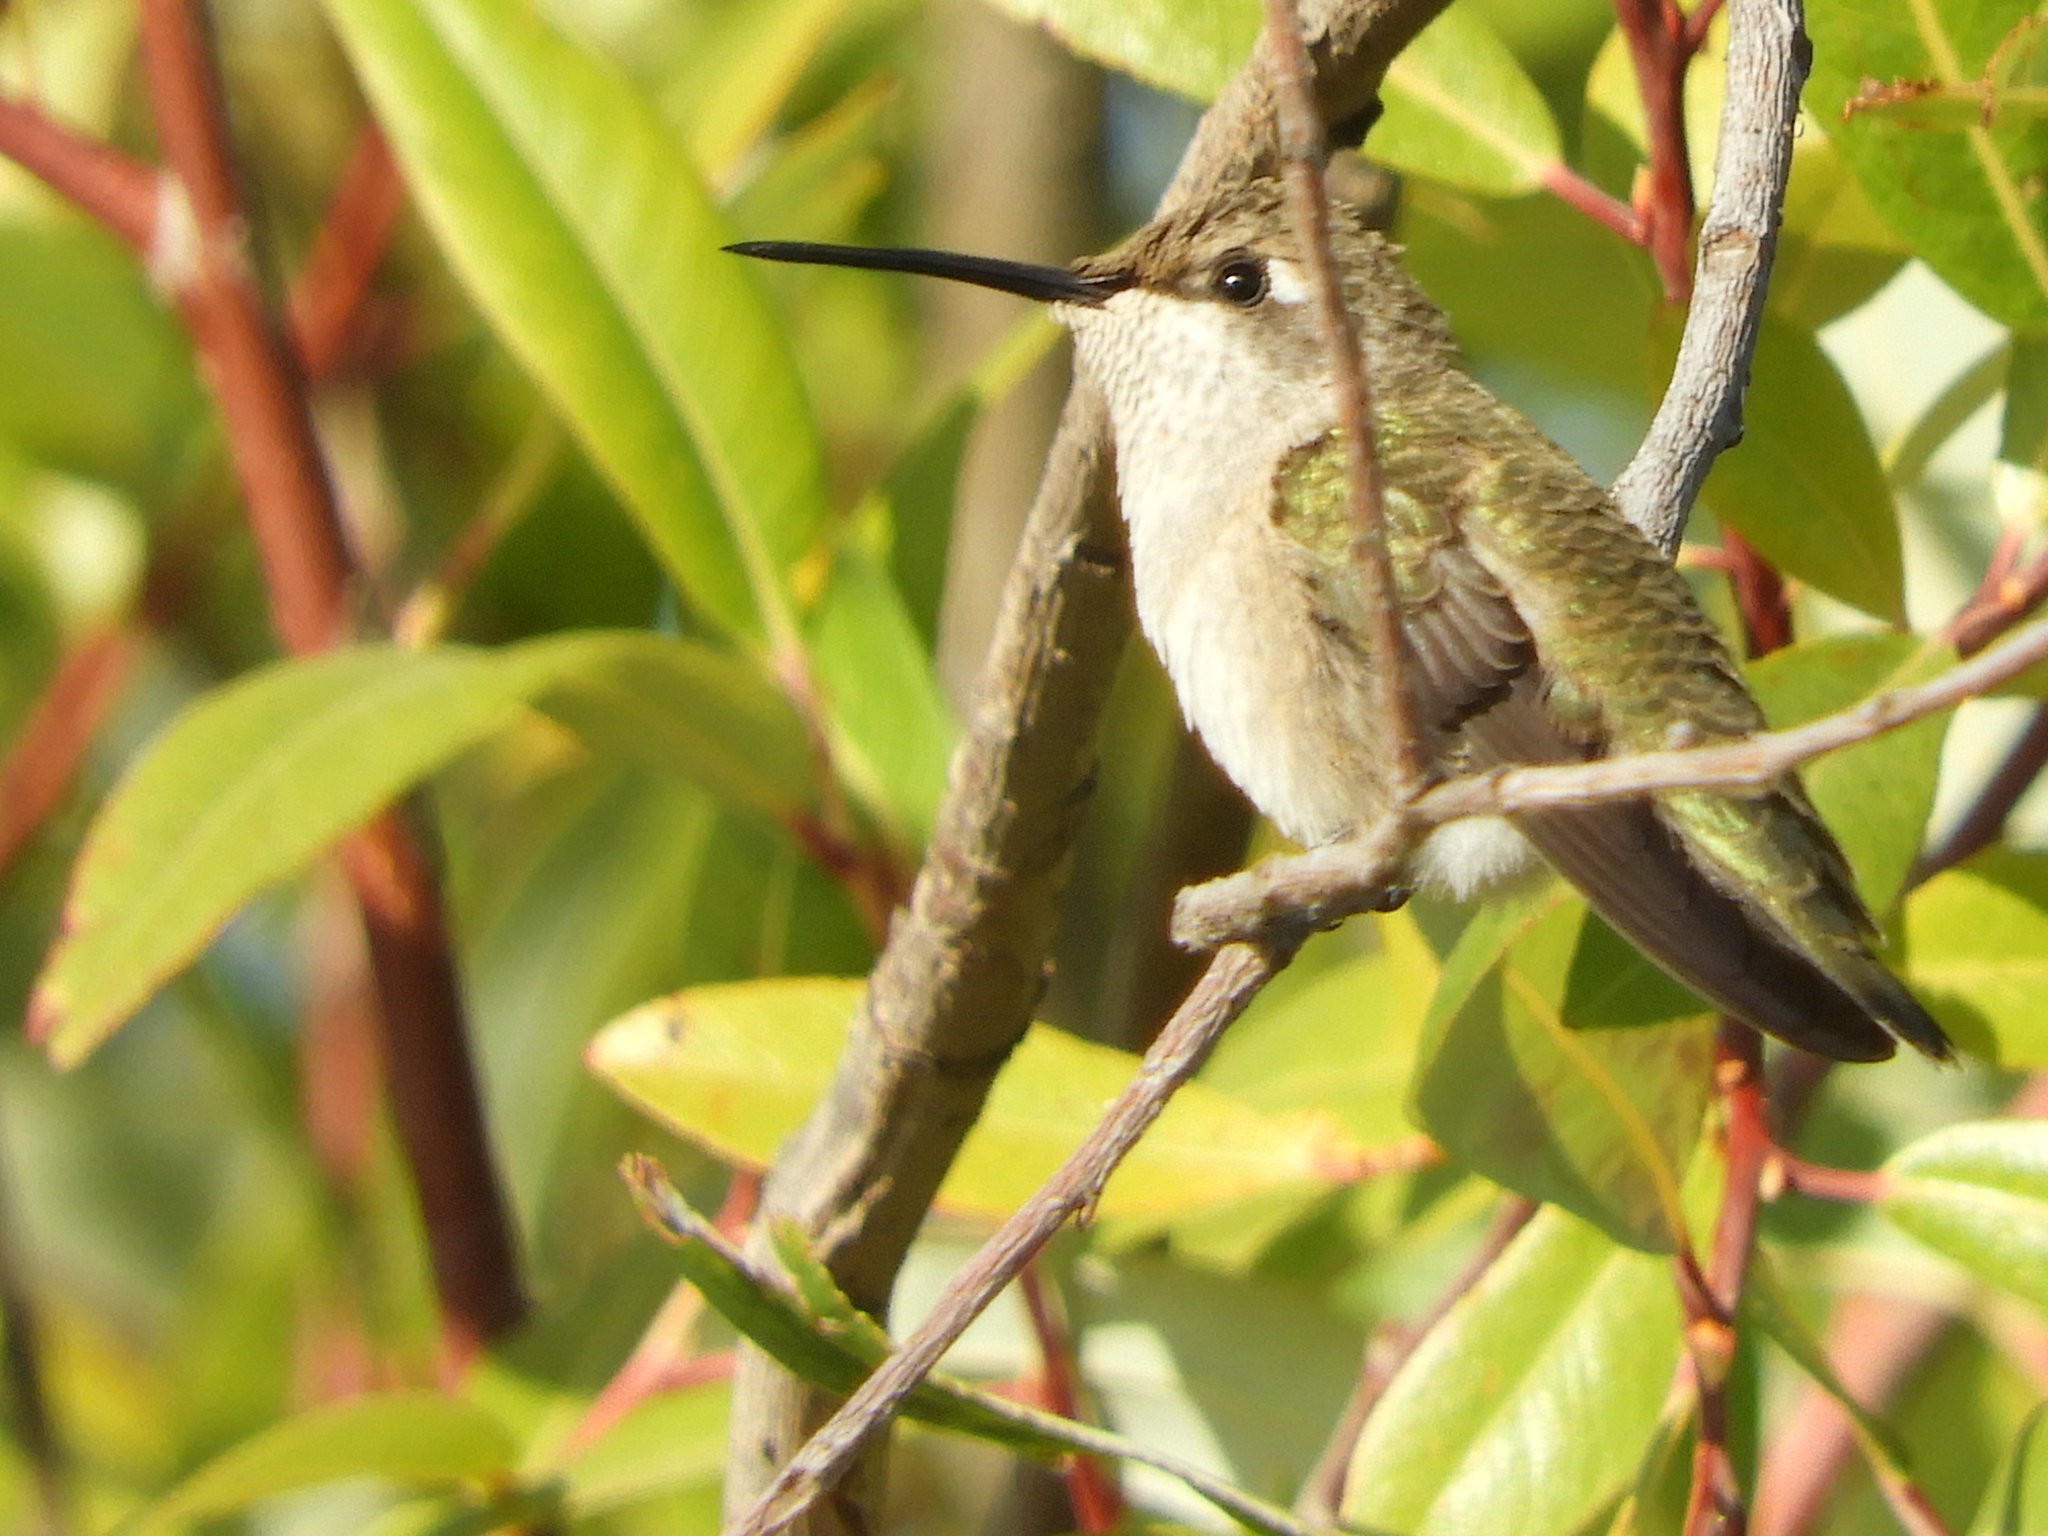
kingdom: Animalia
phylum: Chordata
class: Aves
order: Apodiformes
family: Trochilidae
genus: Calypte
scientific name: Calypte anna
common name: Anna's hummingbird
